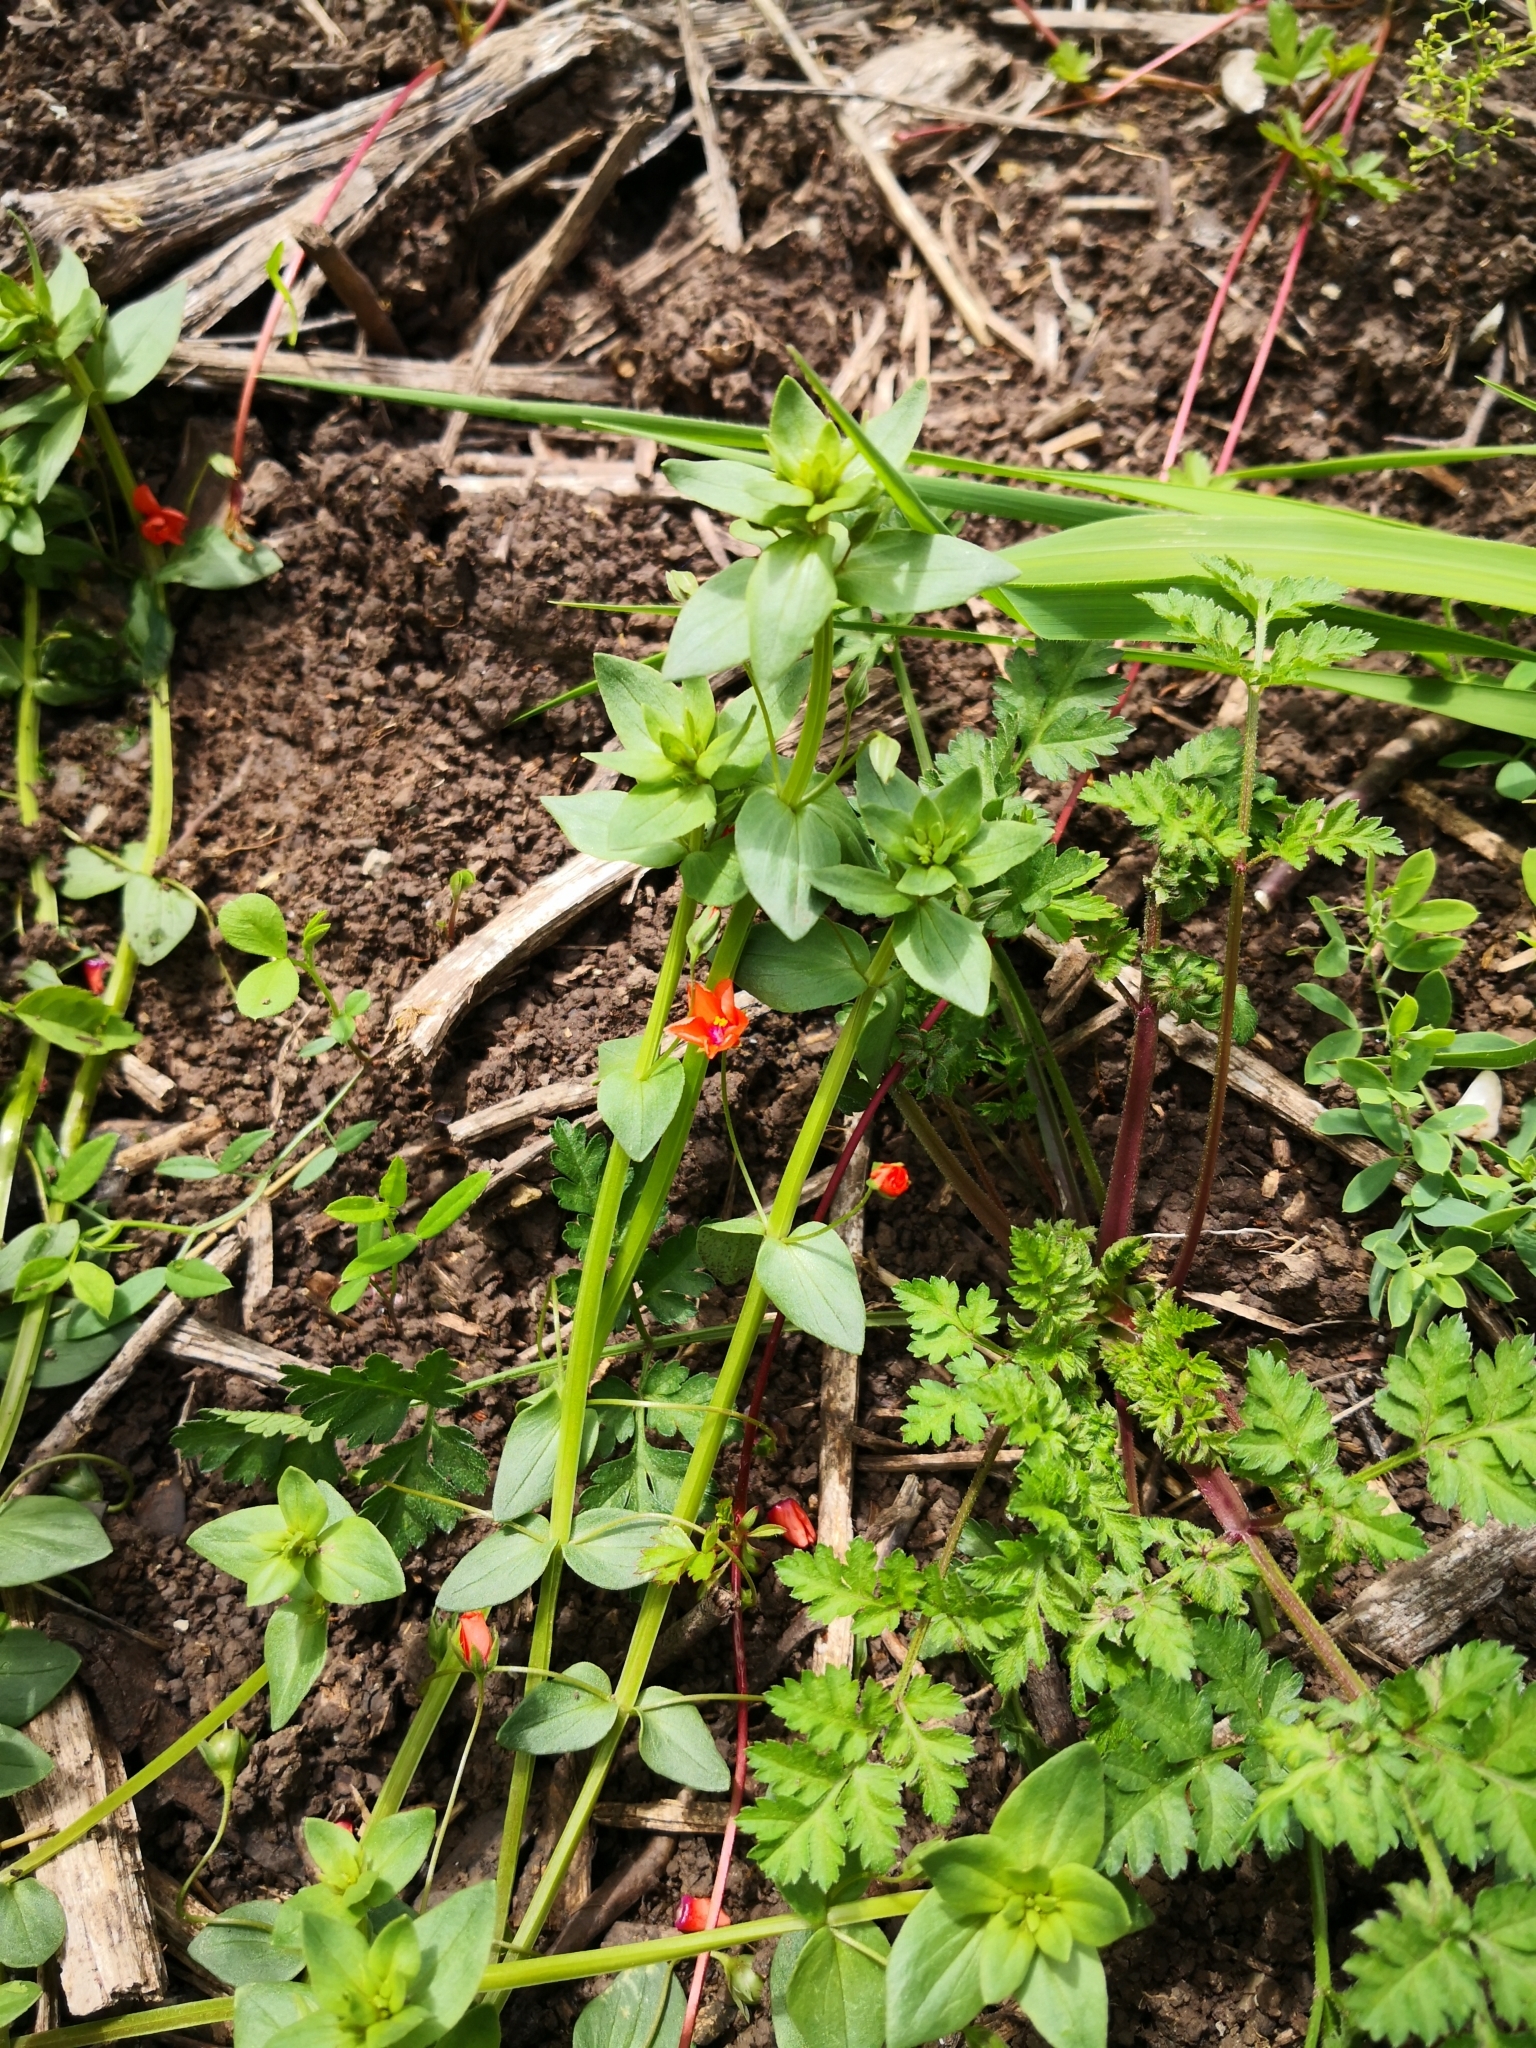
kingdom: Plantae
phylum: Tracheophyta
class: Magnoliopsida
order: Ericales
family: Primulaceae
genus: Lysimachia
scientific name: Lysimachia arvensis
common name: Scarlet pimpernel
